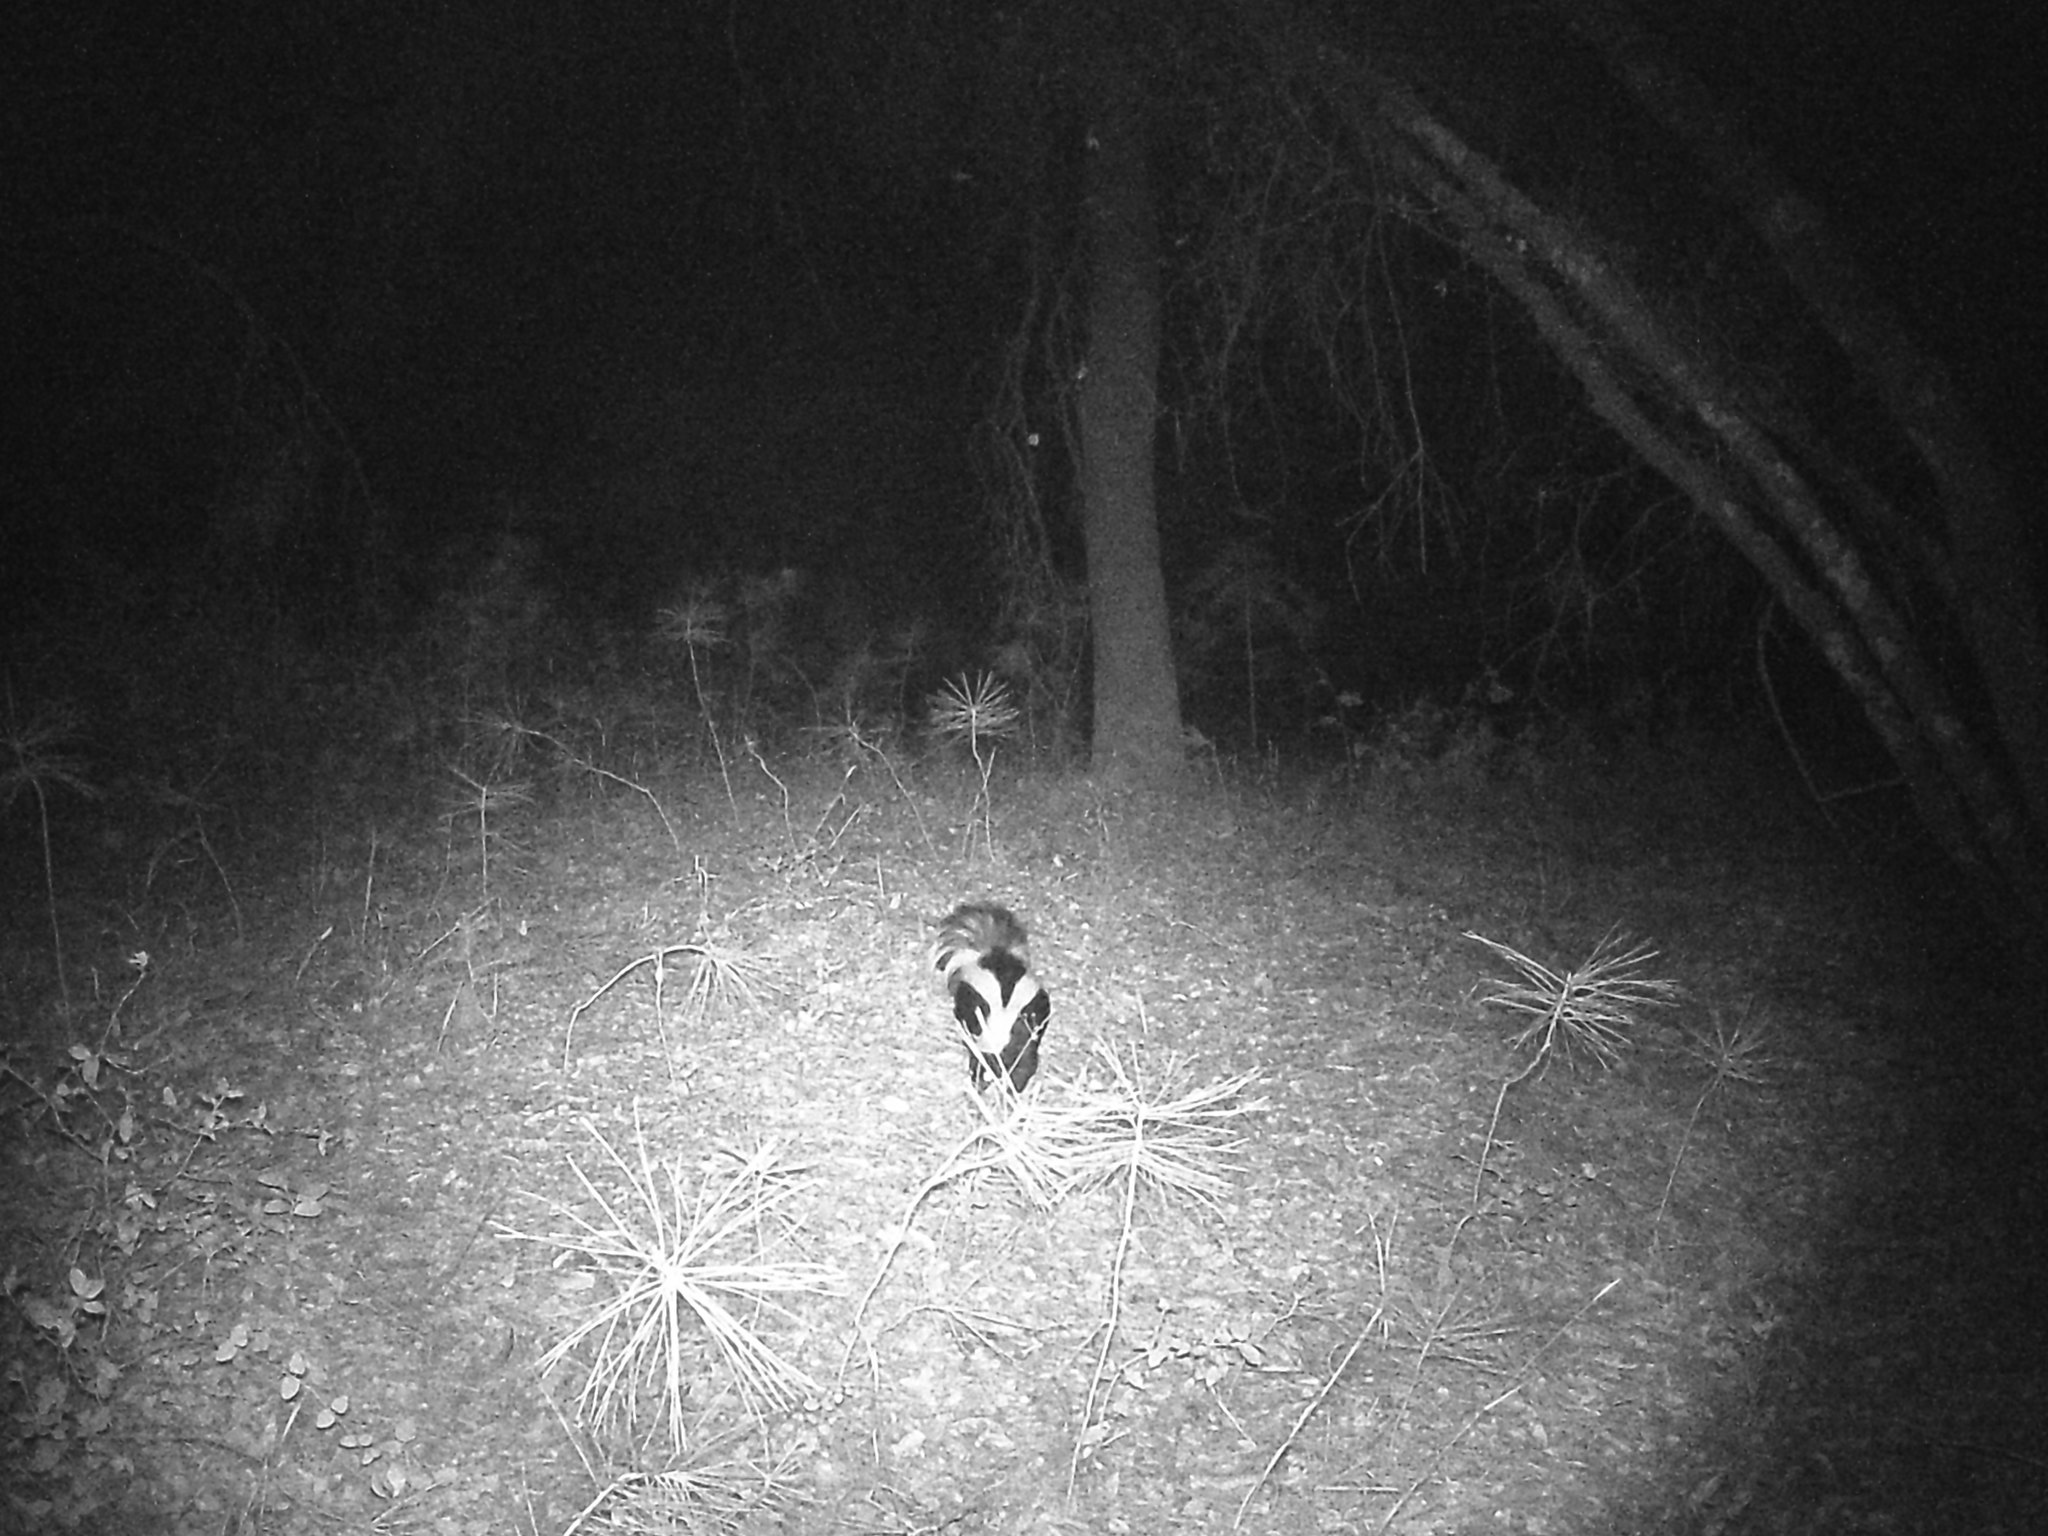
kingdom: Animalia
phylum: Chordata
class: Mammalia
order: Carnivora
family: Mephitidae
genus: Mephitis
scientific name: Mephitis mephitis
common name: Striped skunk
